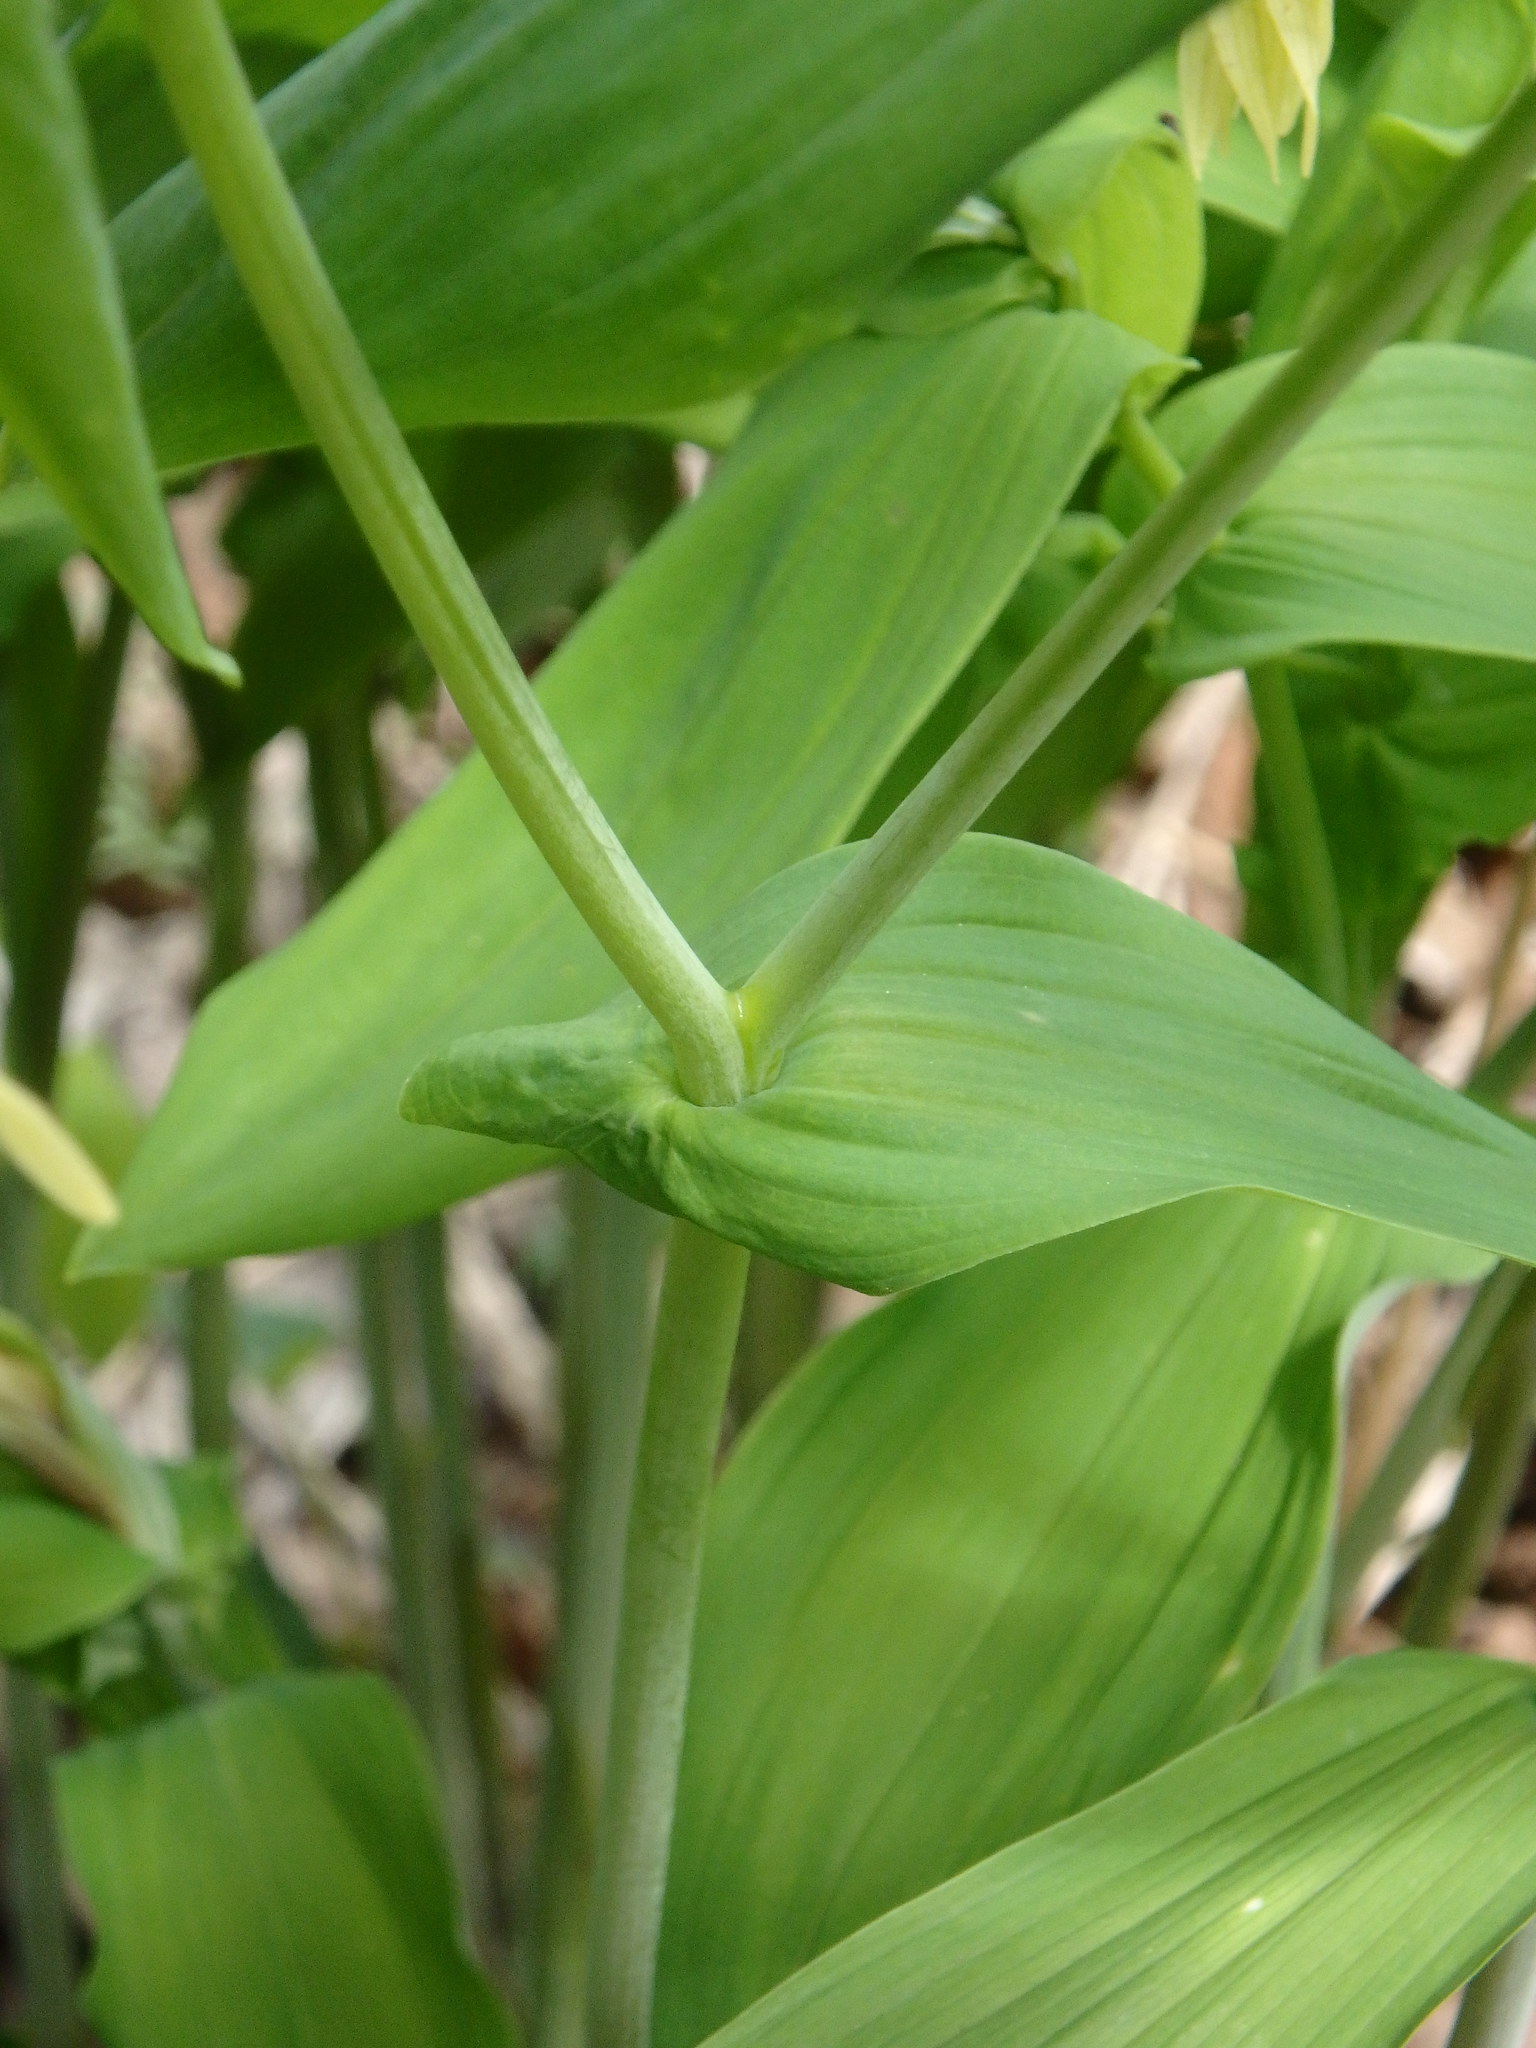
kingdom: Plantae
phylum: Tracheophyta
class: Liliopsida
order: Liliales
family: Colchicaceae
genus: Uvularia
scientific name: Uvularia grandiflora
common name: Bellwort
